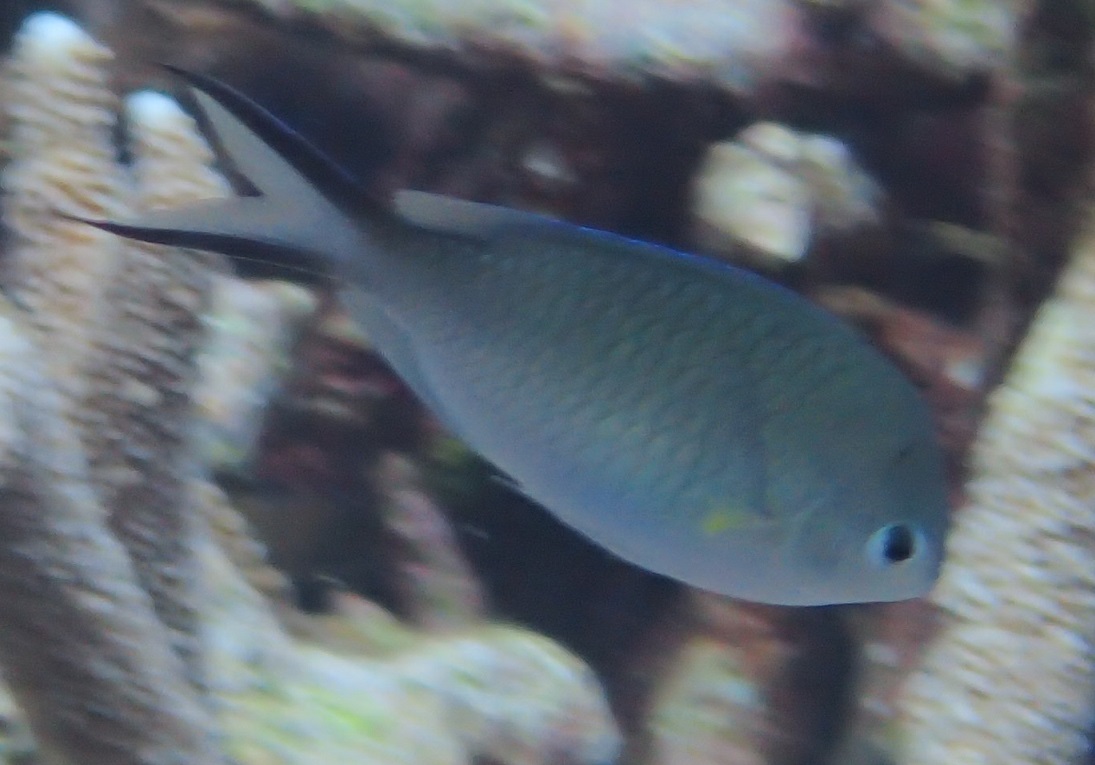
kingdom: Animalia
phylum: Chordata
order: Perciformes
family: Pomacentridae
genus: Chromis
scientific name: Chromis ternatensis
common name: Ternate chromis
